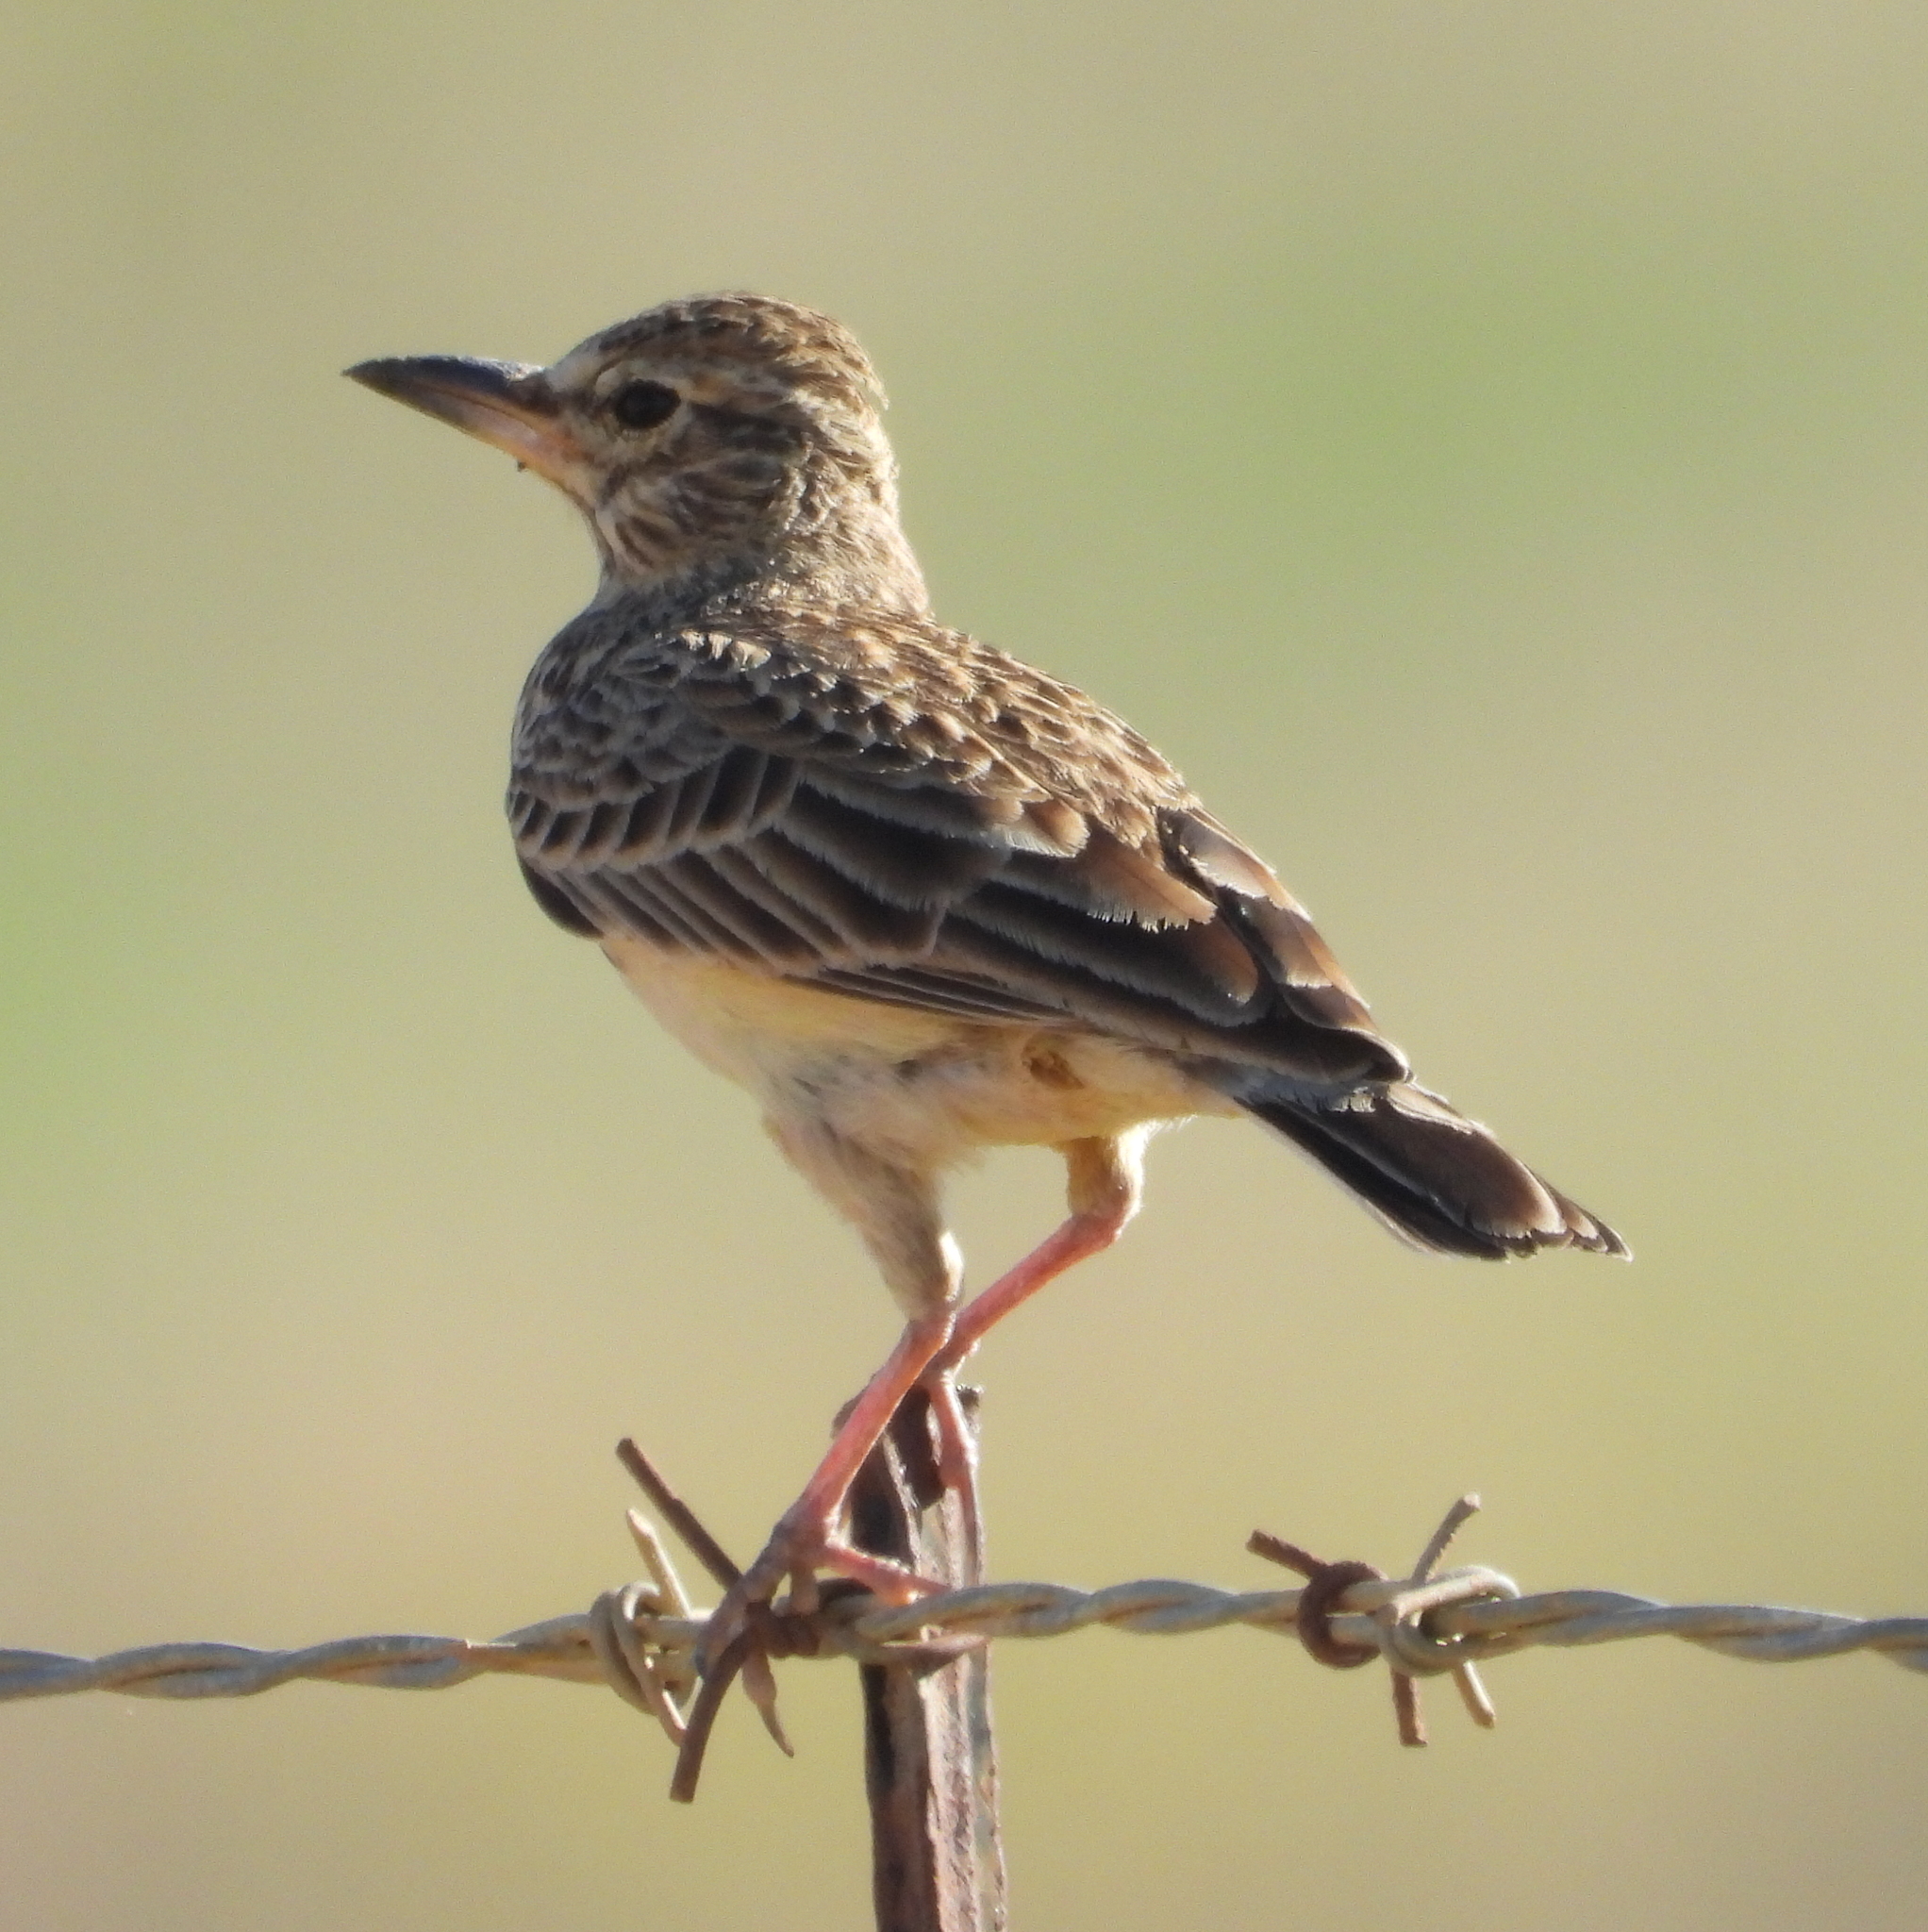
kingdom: Animalia
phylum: Chordata
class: Aves
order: Passeriformes
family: Alaudidae
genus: Galerida
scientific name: Galerida magnirostris
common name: Large-billed lark
